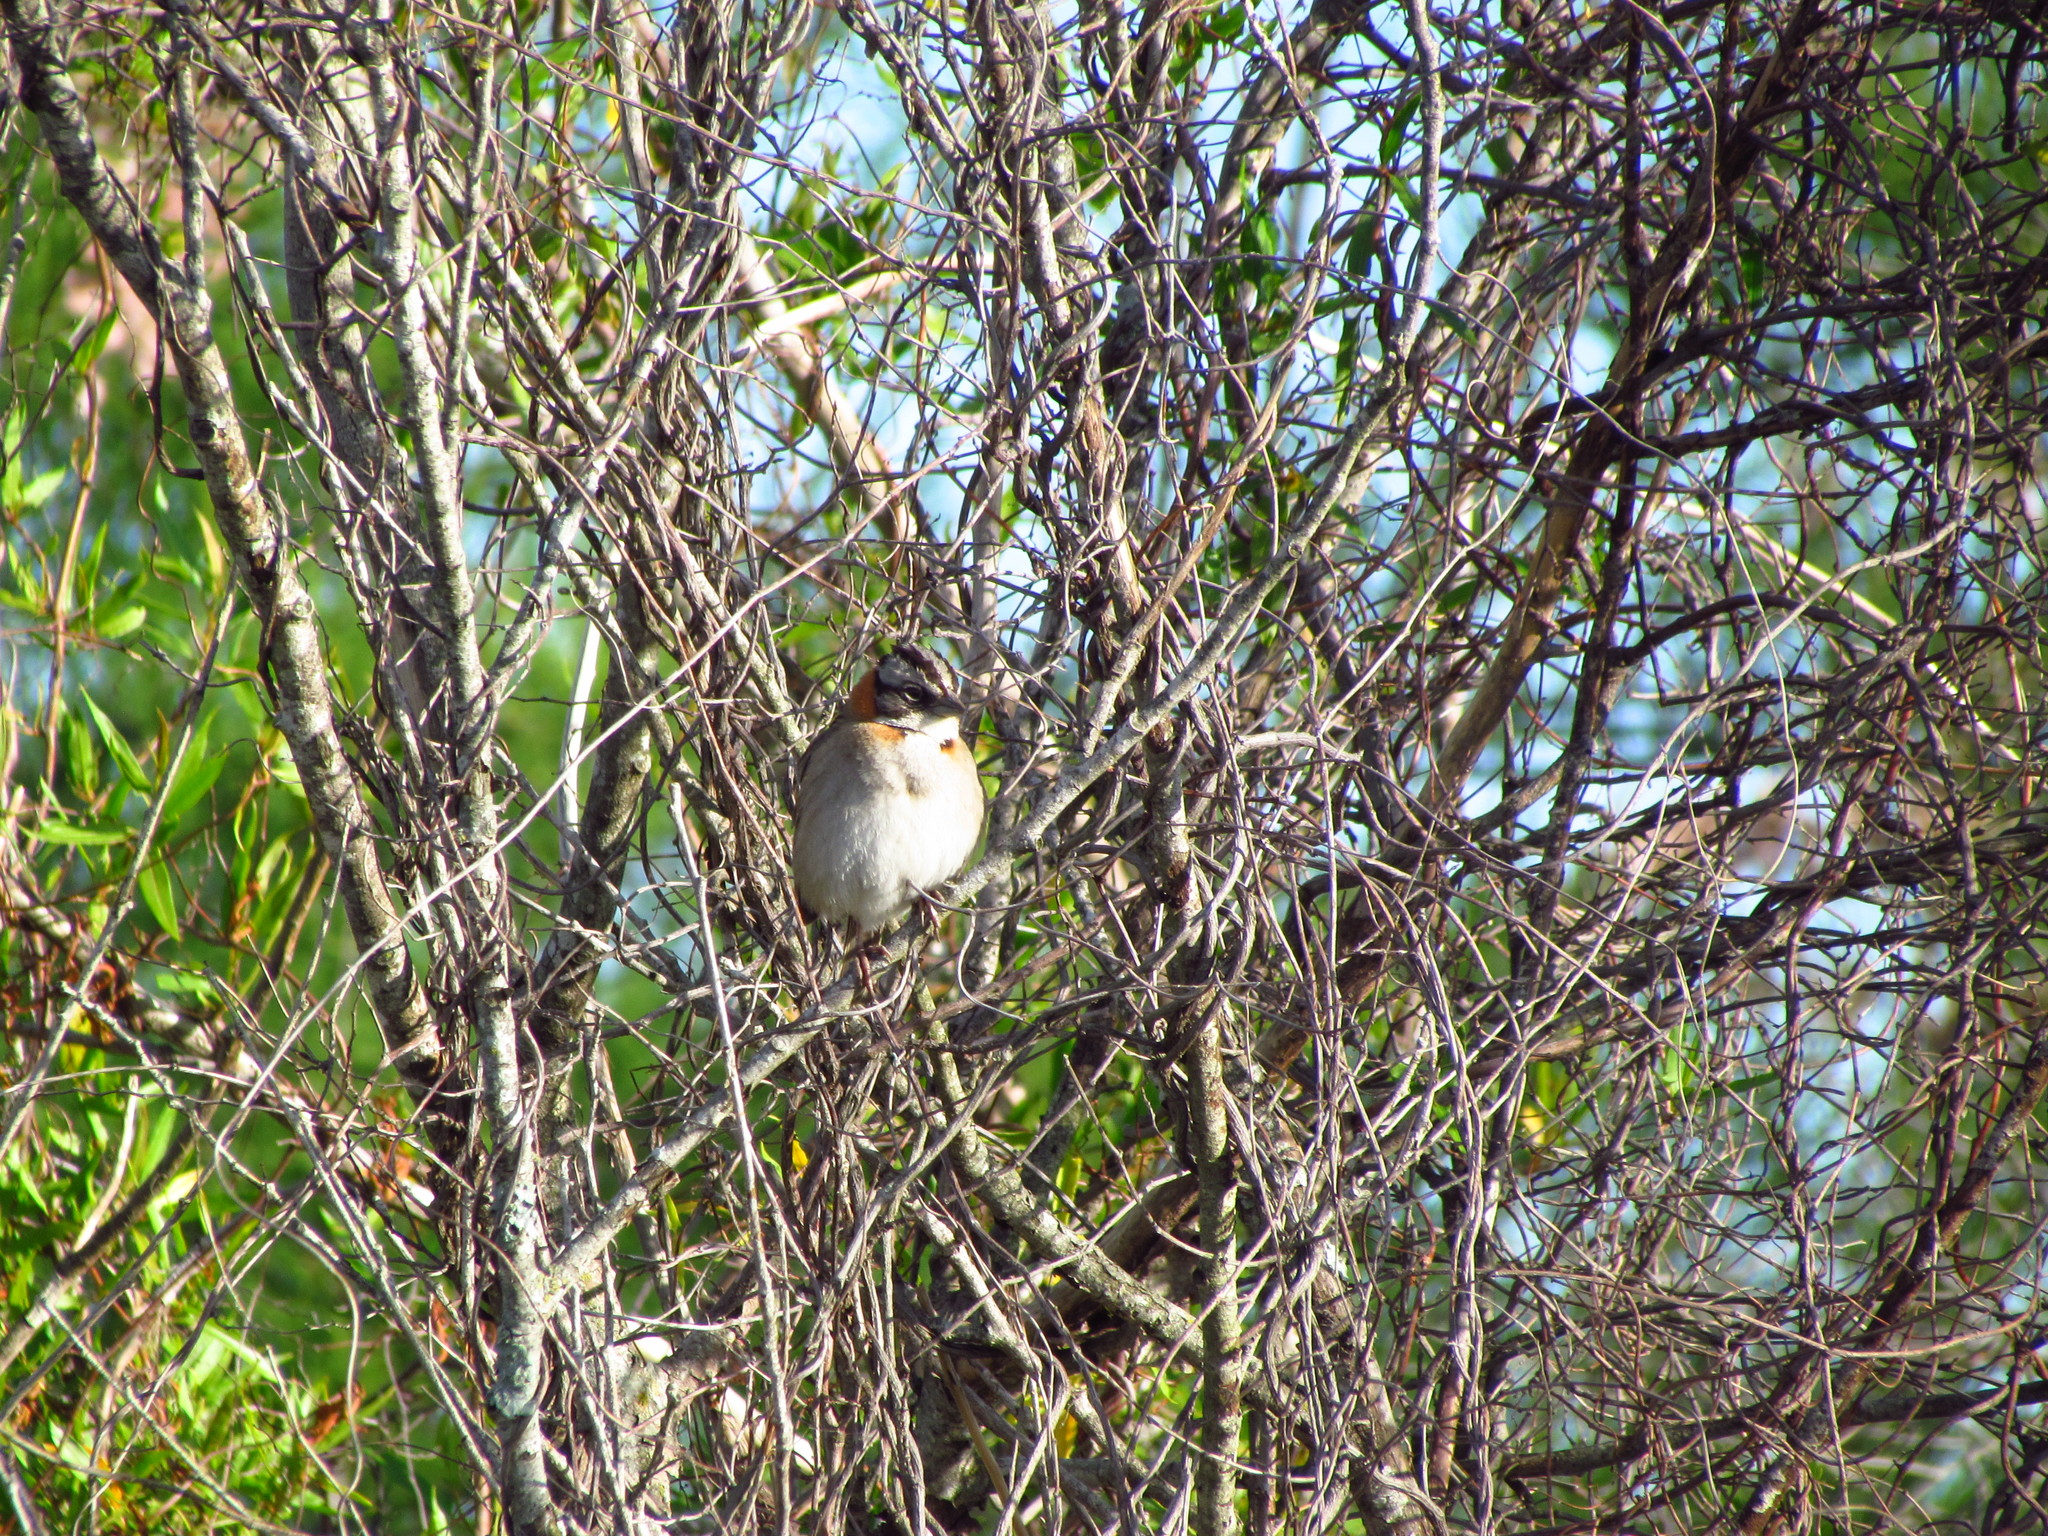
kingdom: Animalia
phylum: Chordata
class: Aves
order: Passeriformes
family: Passerellidae
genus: Zonotrichia
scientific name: Zonotrichia capensis
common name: Rufous-collared sparrow
